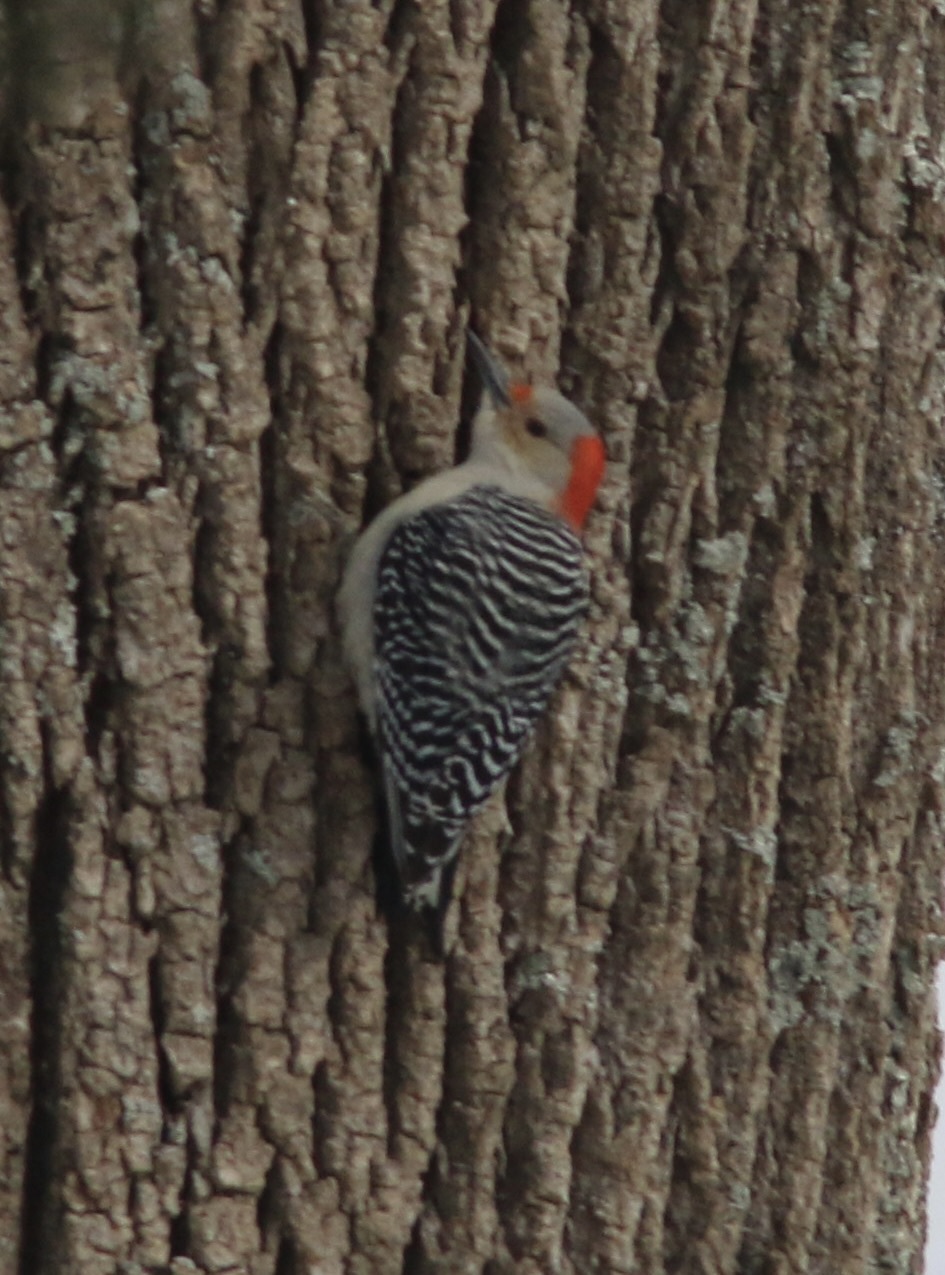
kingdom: Animalia
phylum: Chordata
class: Aves
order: Piciformes
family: Picidae
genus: Melanerpes
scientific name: Melanerpes carolinus
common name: Red-bellied woodpecker
